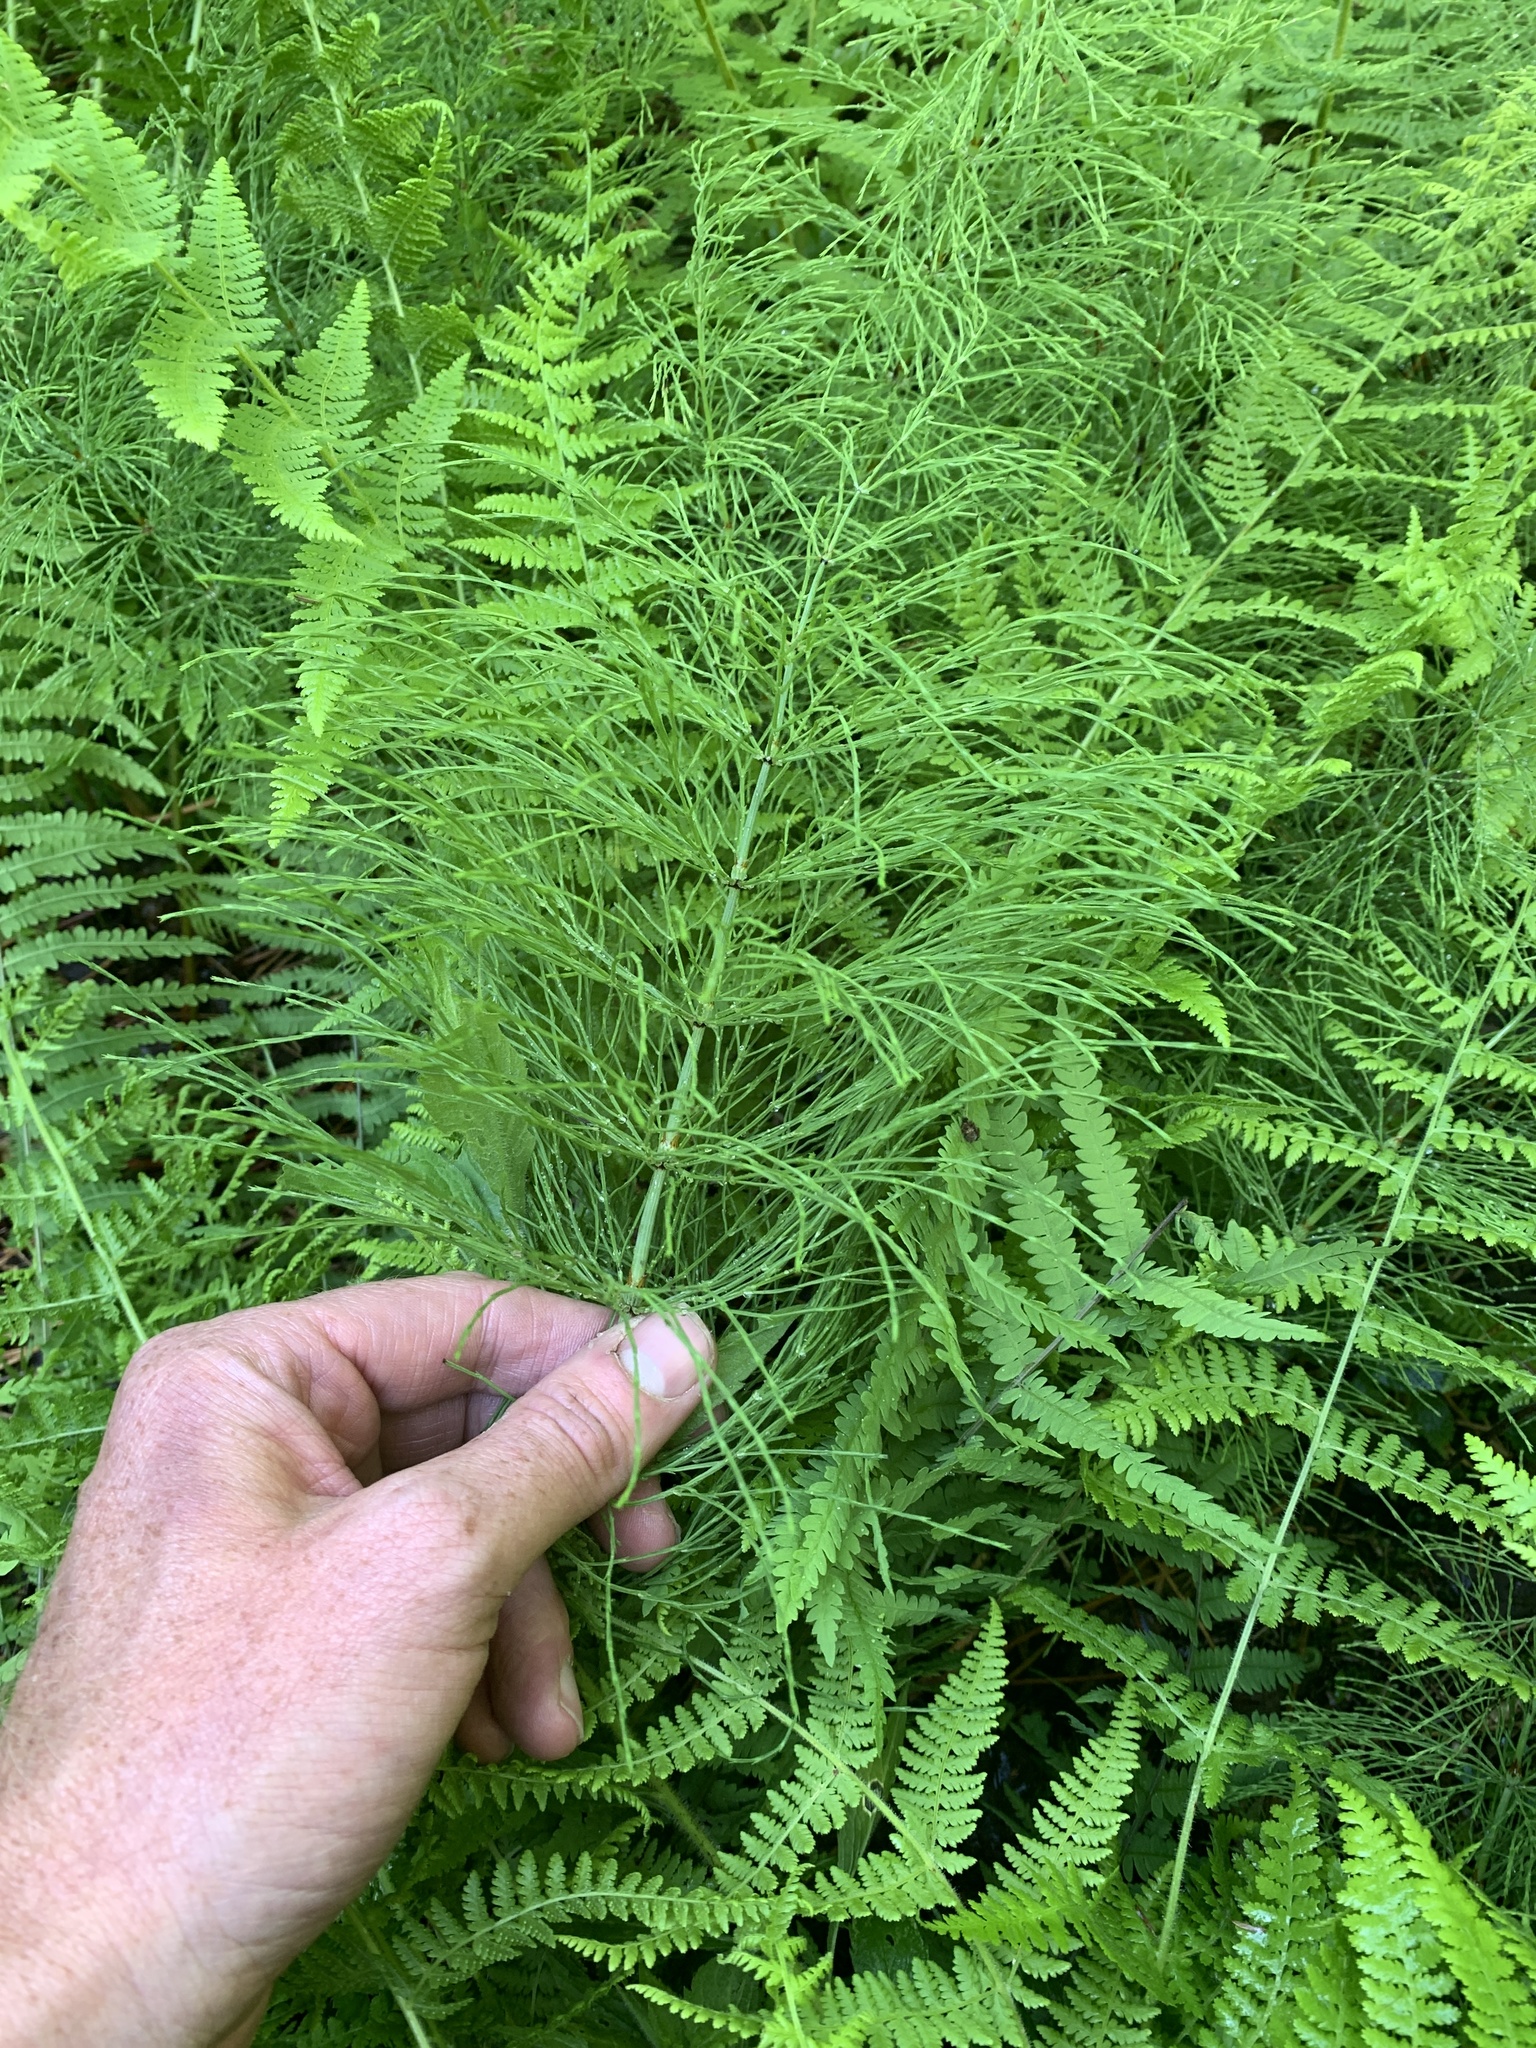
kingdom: Plantae
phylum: Tracheophyta
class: Polypodiopsida
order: Equisetales
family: Equisetaceae
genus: Equisetum
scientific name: Equisetum sylvaticum
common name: Wood horsetail
